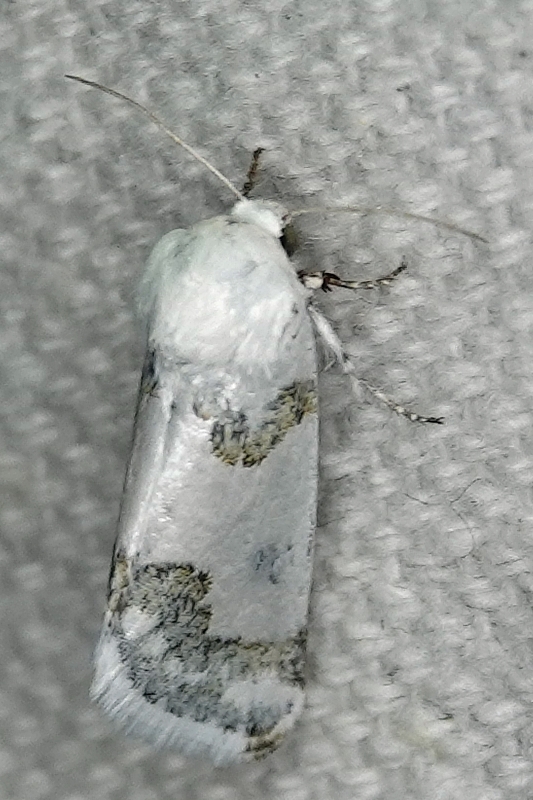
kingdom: Animalia
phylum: Arthropoda
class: Insecta
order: Lepidoptera
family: Noctuidae
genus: Schinia
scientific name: Schinia cumatilis
